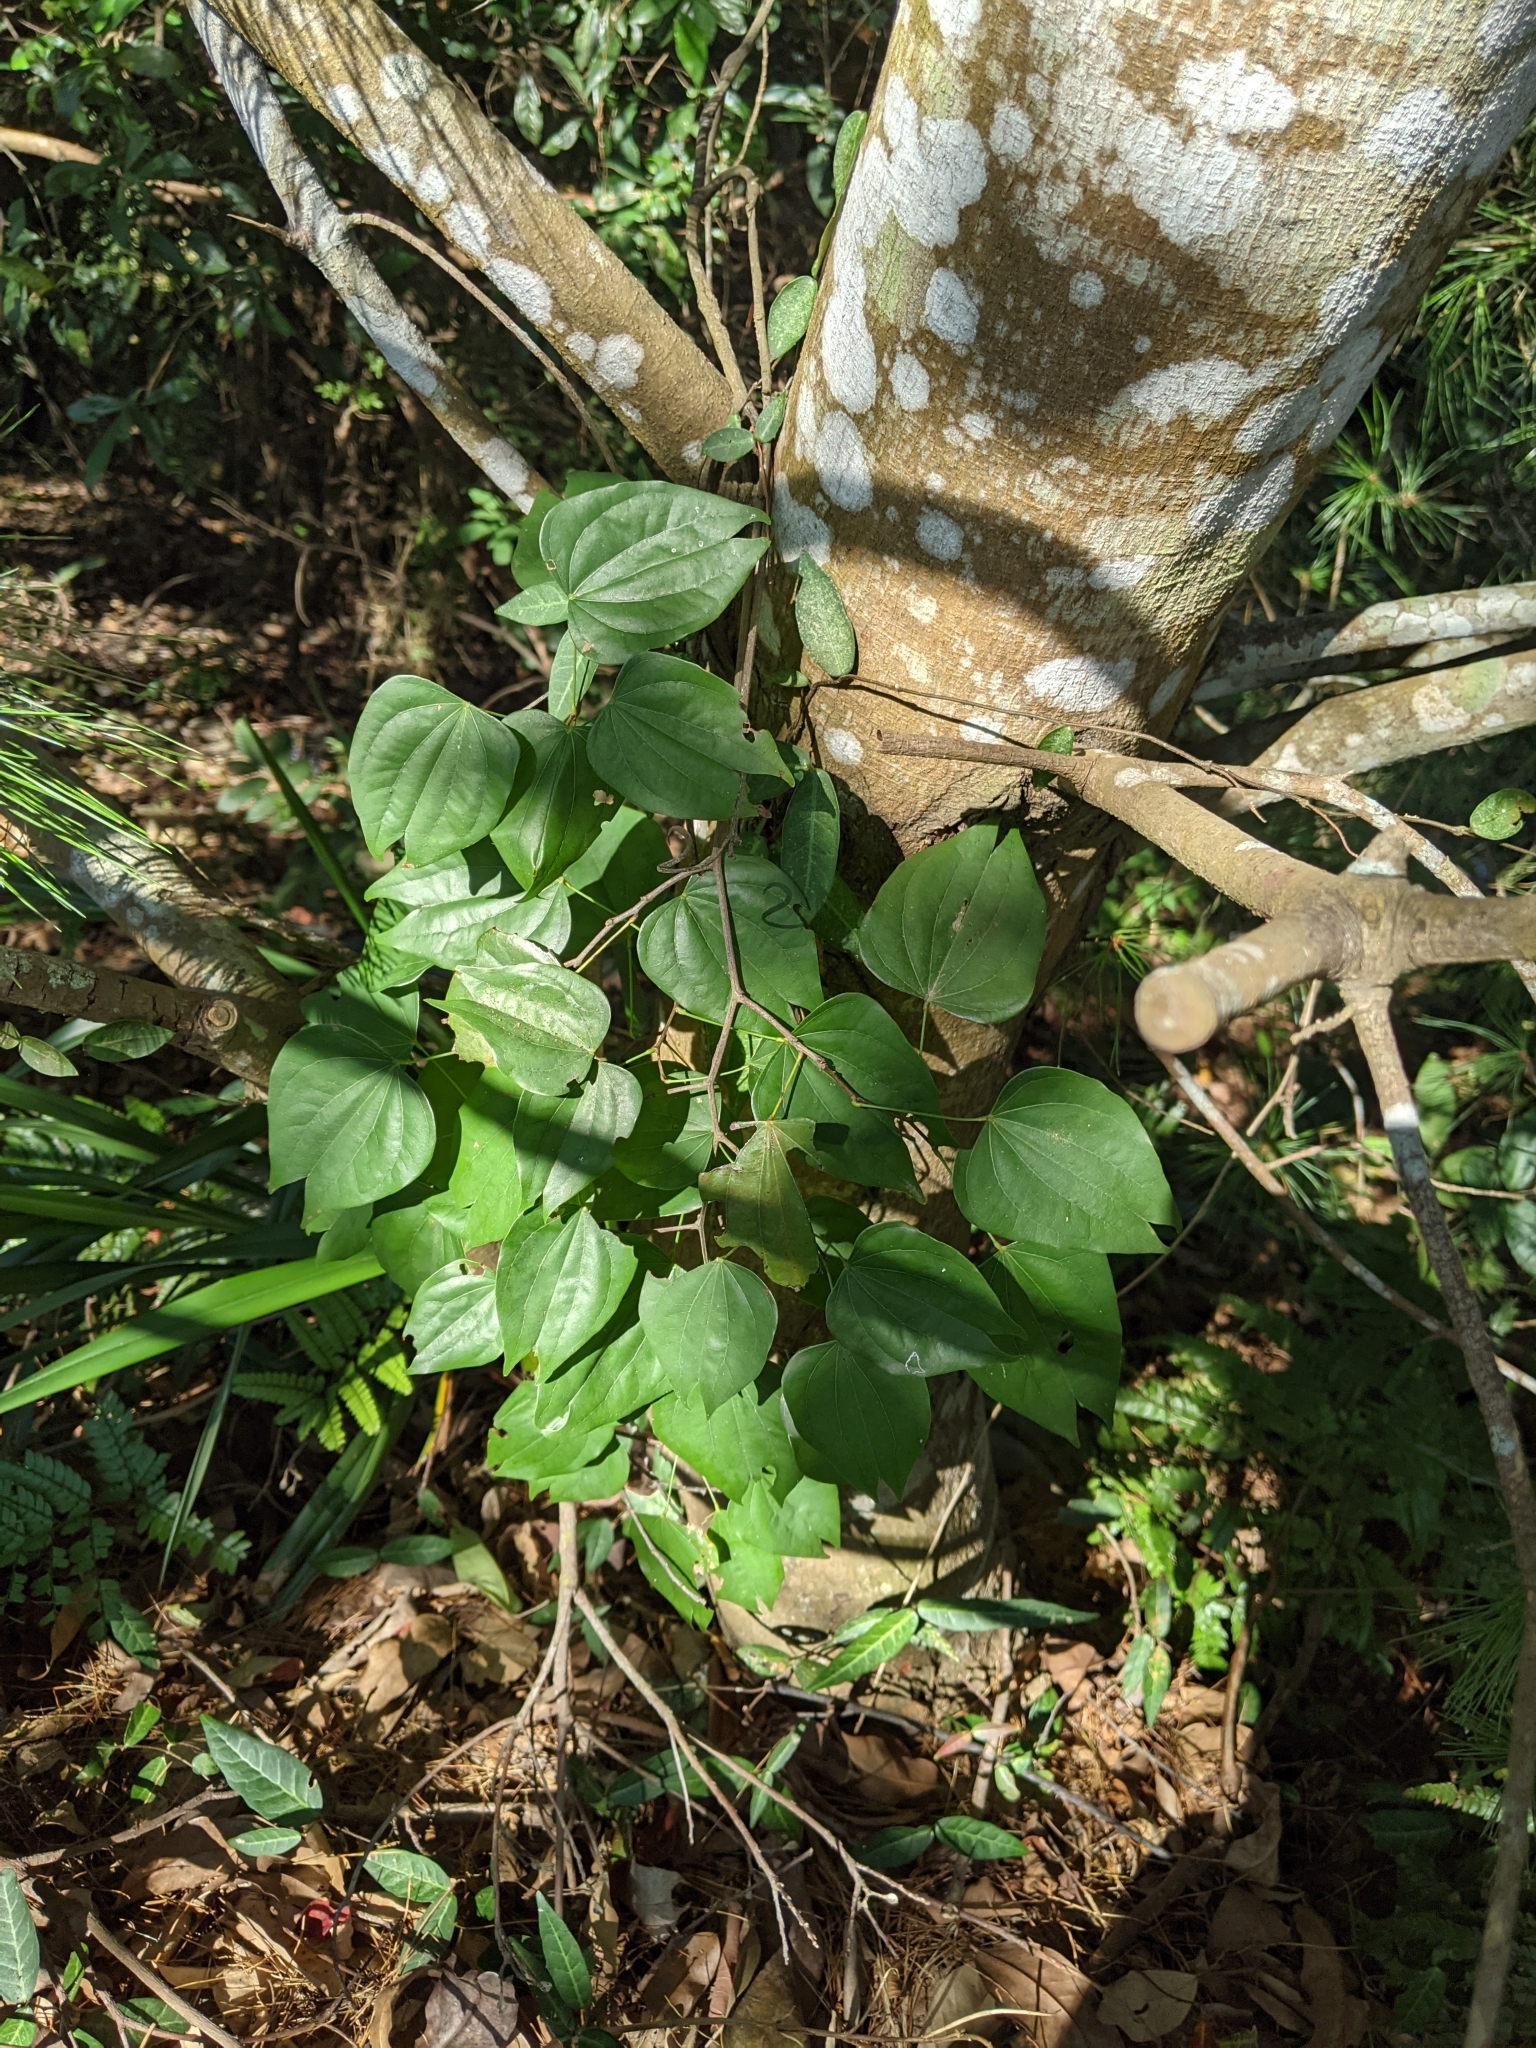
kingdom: Plantae
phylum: Tracheophyta
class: Magnoliopsida
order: Fabales
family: Fabaceae
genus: Phanera
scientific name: Phanera championii
